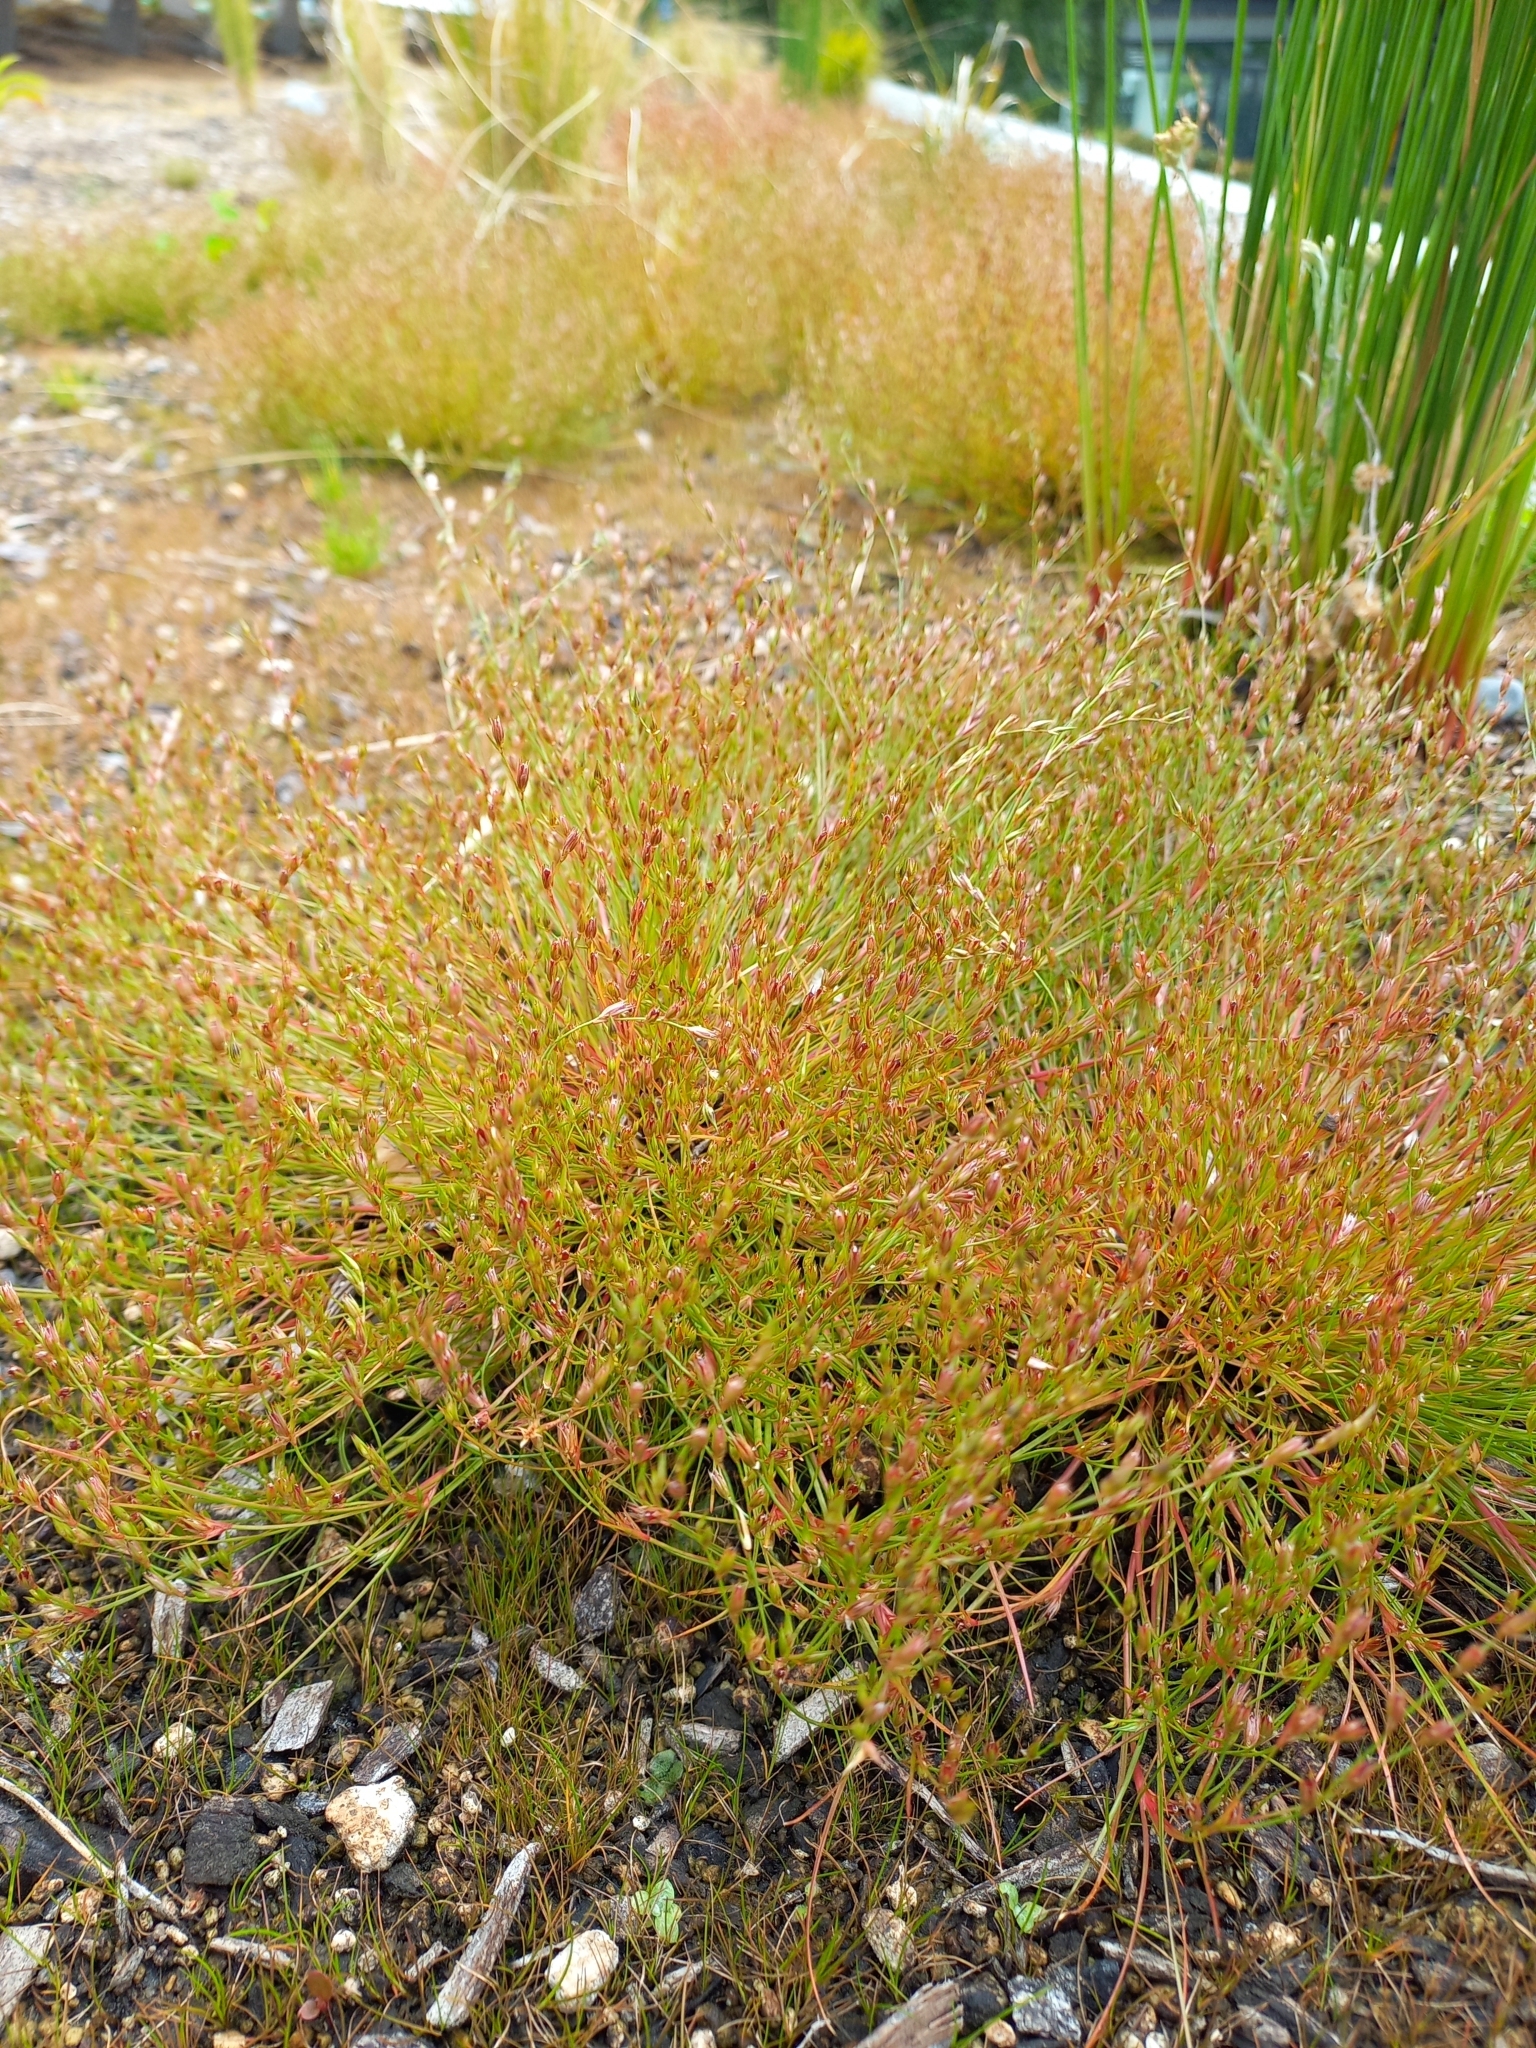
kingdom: Plantae
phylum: Tracheophyta
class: Liliopsida
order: Poales
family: Juncaceae
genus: Juncus
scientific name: Juncus bufonius
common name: Toad rush
